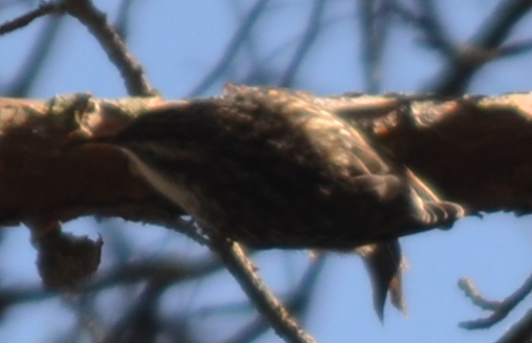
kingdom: Animalia
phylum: Chordata
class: Aves
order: Passeriformes
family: Certhiidae
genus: Certhia
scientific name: Certhia brachydactyla
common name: Short-toed treecreeper
